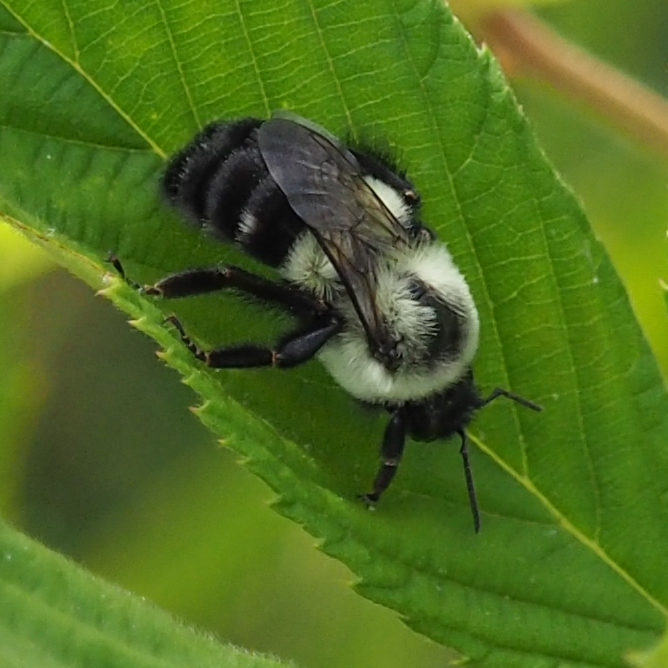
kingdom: Animalia
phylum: Arthropoda
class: Insecta
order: Hymenoptera
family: Apidae
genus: Bombus
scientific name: Bombus impatiens
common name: Common eastern bumble bee
